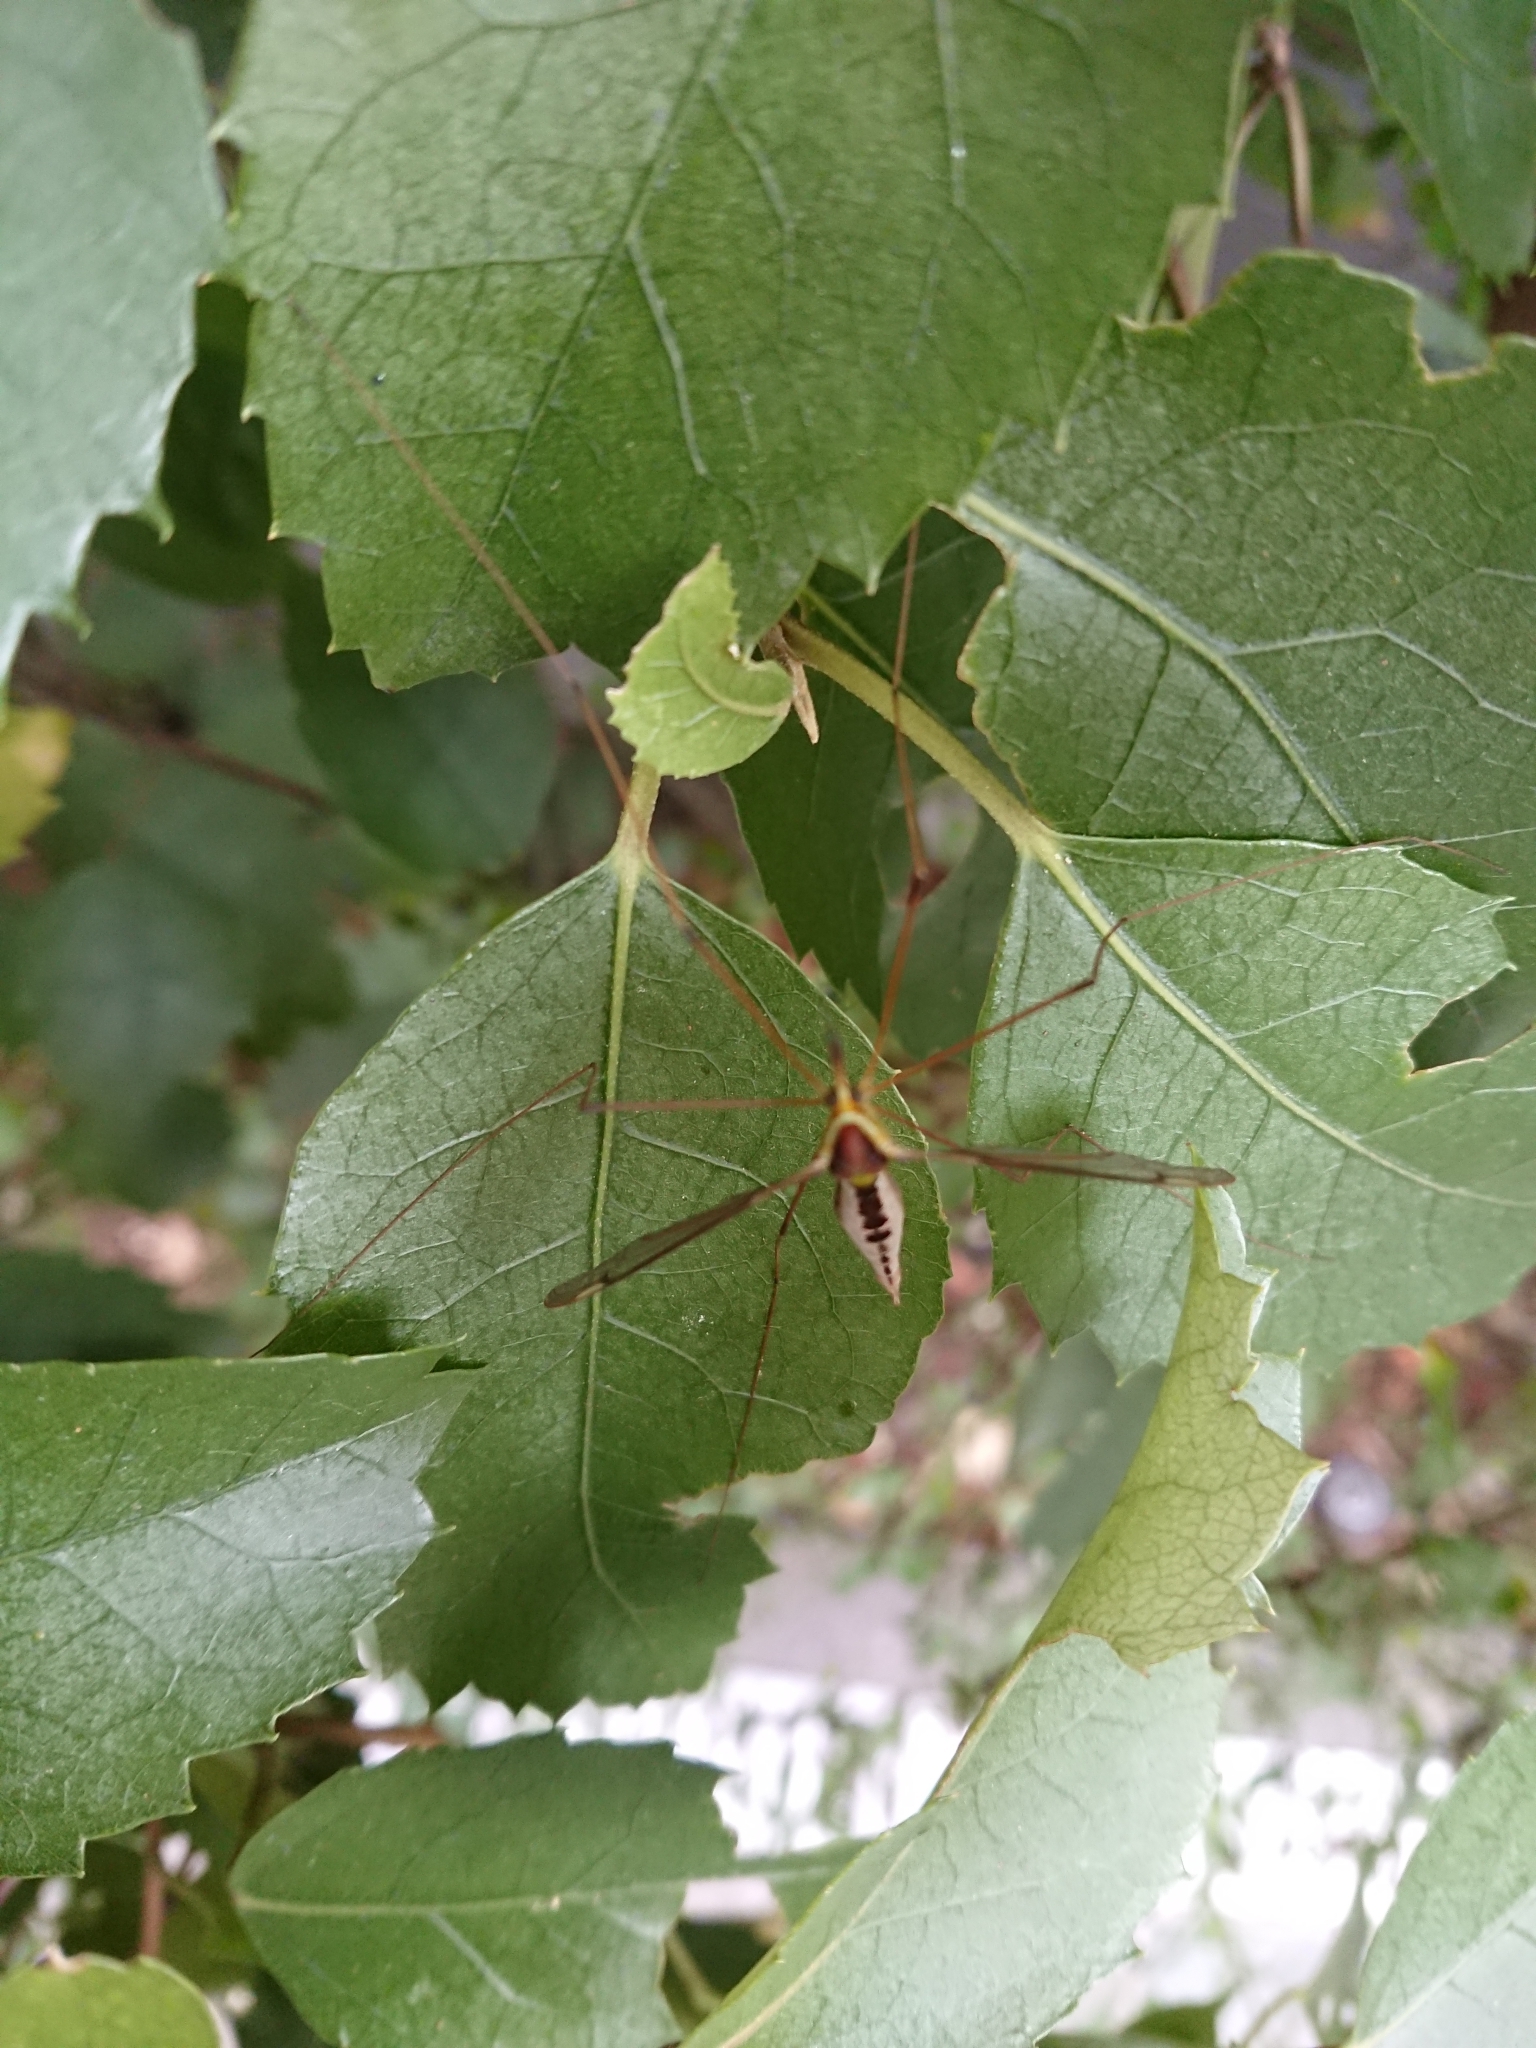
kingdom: Animalia
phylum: Arthropoda
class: Insecta
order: Diptera
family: Tipulidae
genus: Leptotarsus
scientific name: Leptotarsus albistigma
